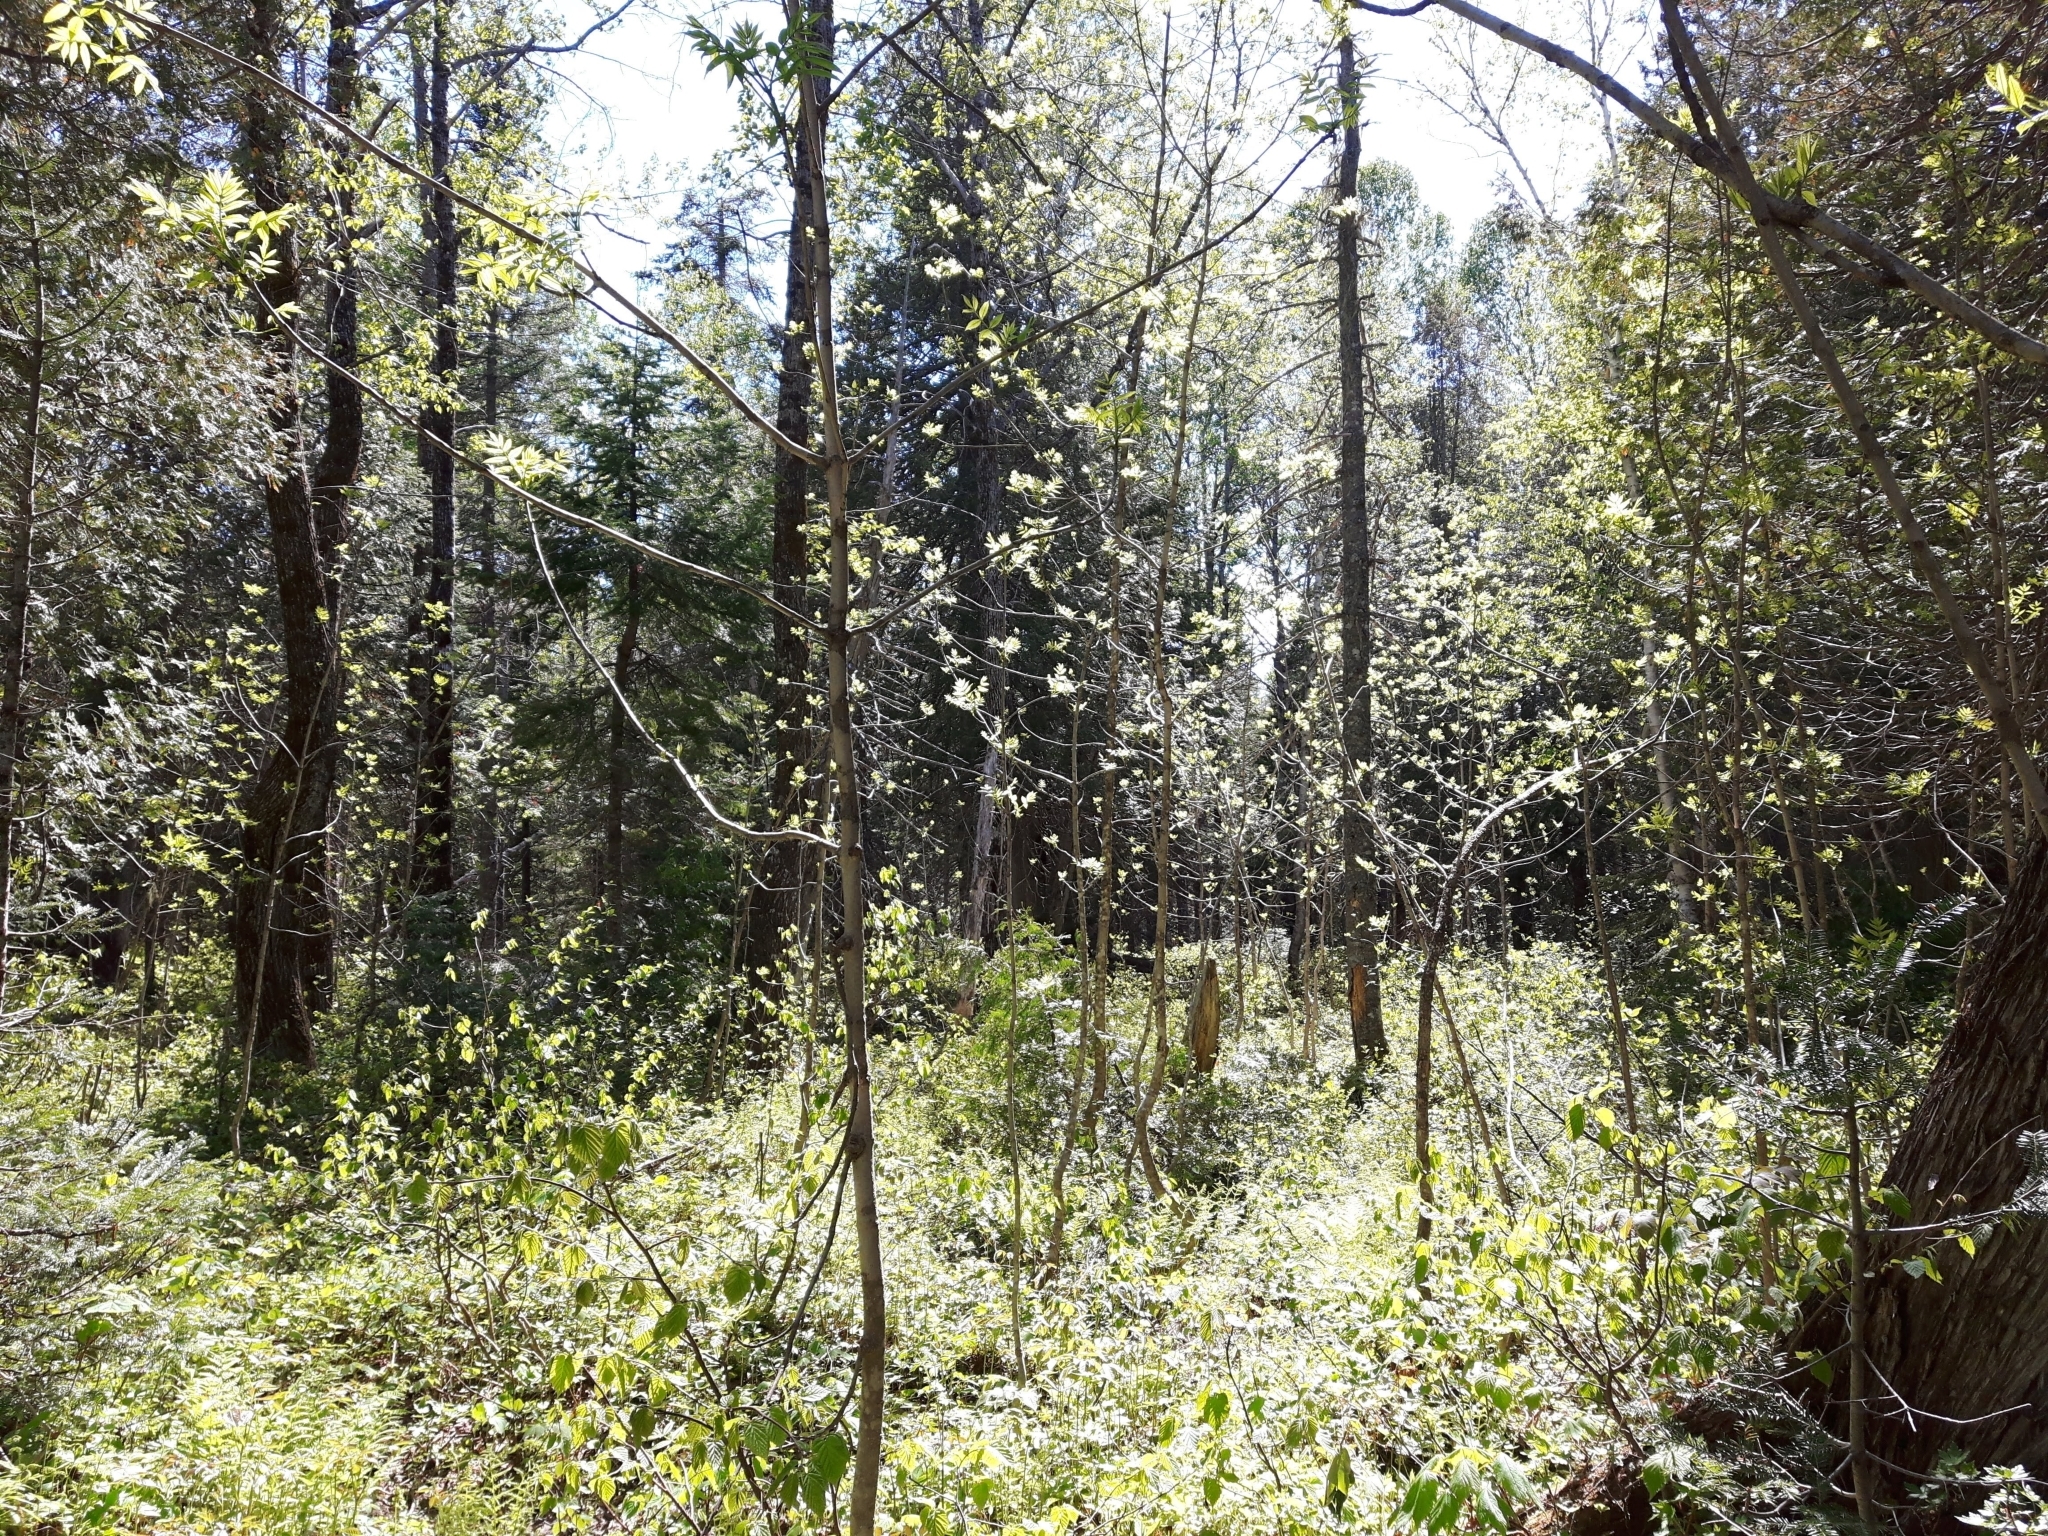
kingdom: Plantae
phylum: Tracheophyta
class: Magnoliopsida
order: Lamiales
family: Oleaceae
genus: Fraxinus
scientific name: Fraxinus nigra
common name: Black ash
